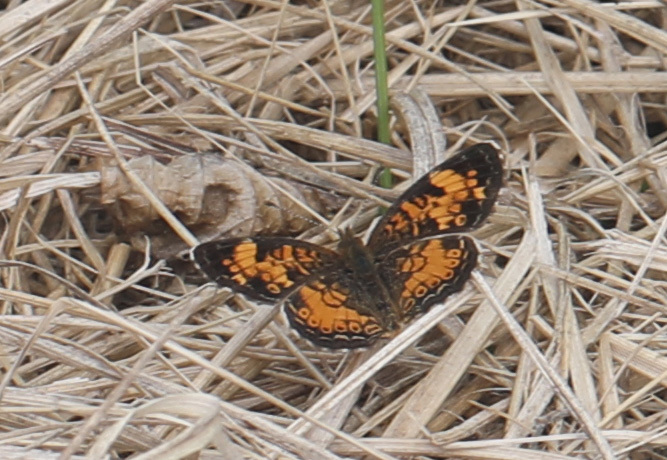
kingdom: Animalia
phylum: Arthropoda
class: Insecta
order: Lepidoptera
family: Nymphalidae
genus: Phyciodes
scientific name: Phyciodes tharos
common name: Pearl crescent
